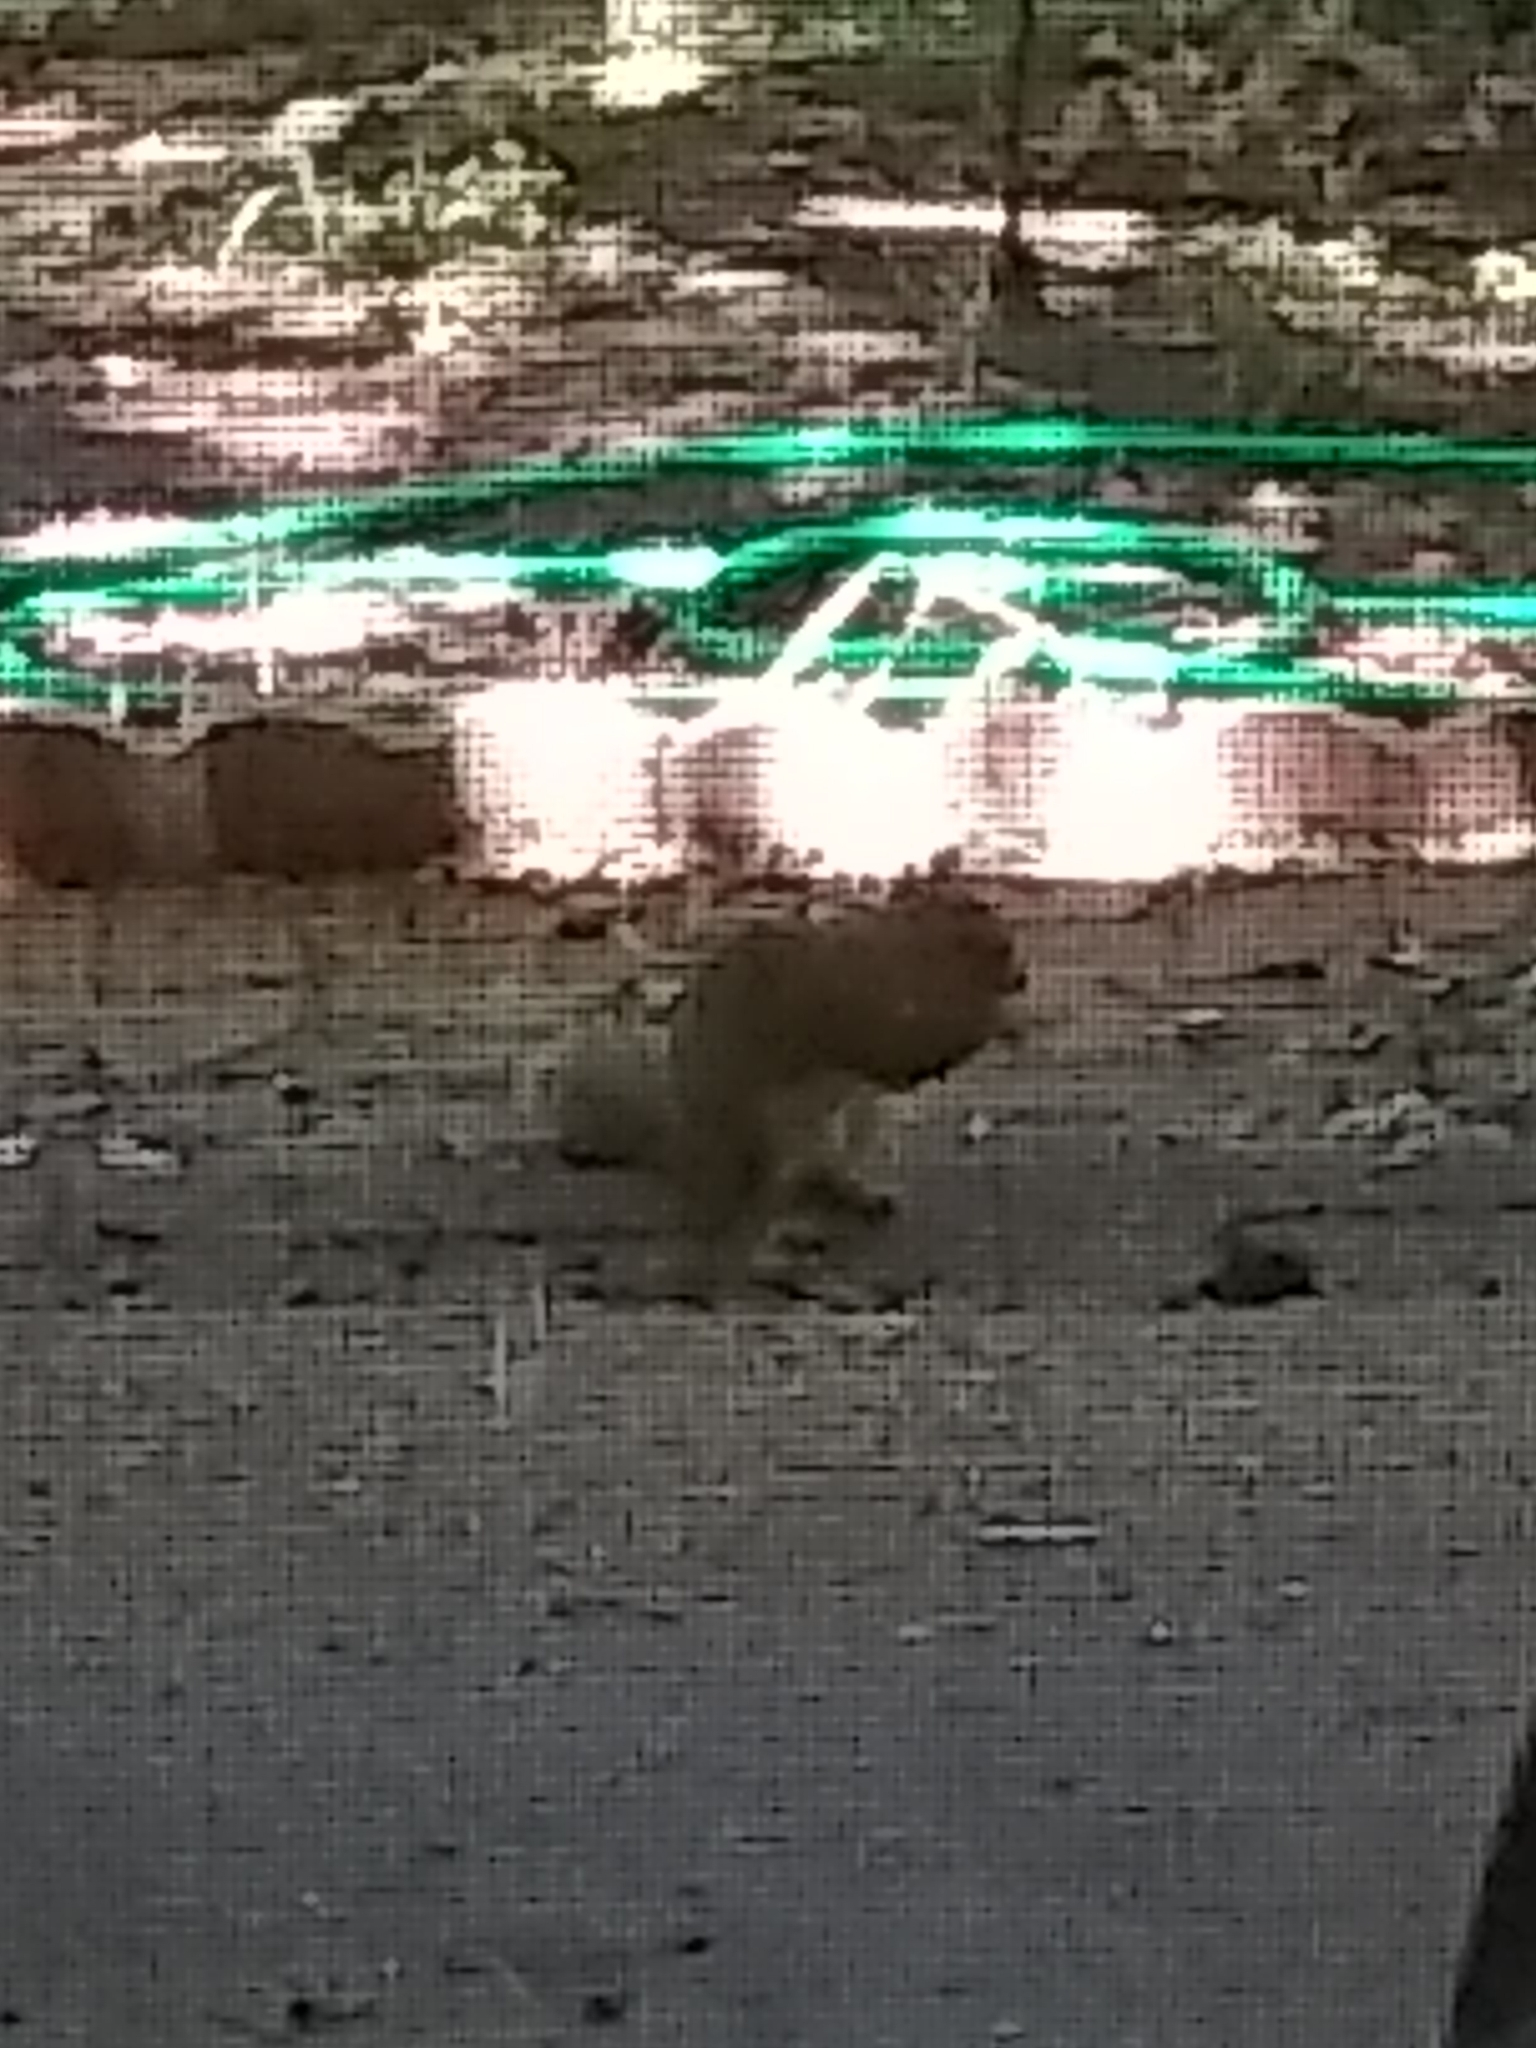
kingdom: Animalia
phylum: Chordata
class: Mammalia
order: Rodentia
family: Sciuridae
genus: Sciurus
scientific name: Sciurus niger
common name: Fox squirrel
